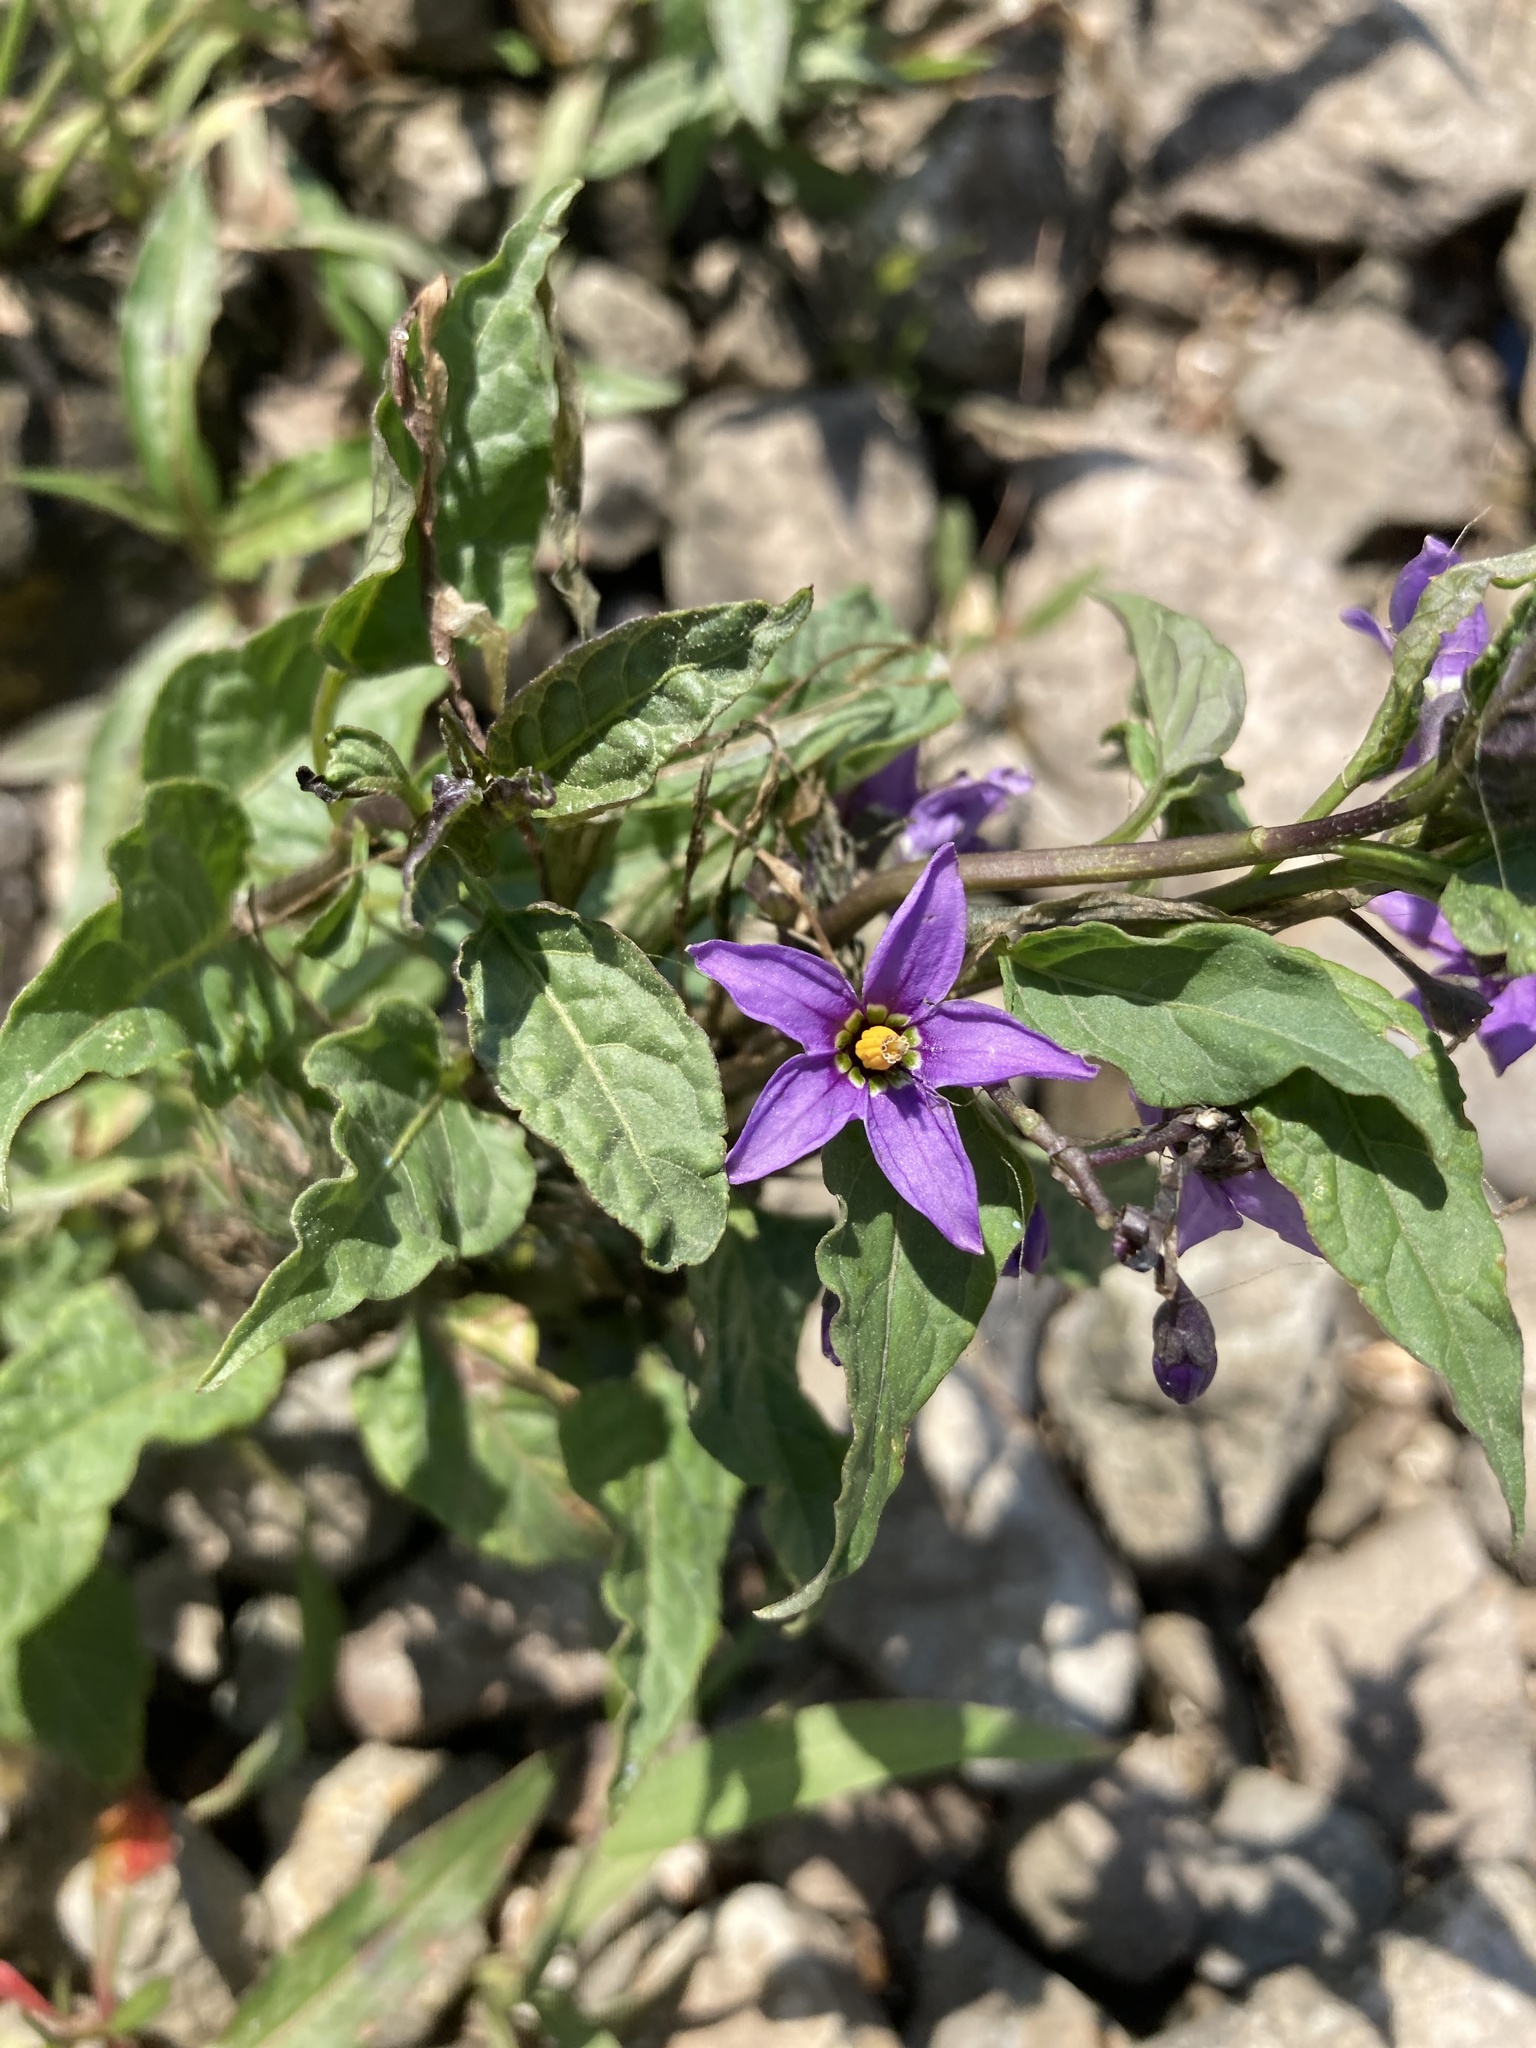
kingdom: Plantae
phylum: Tracheophyta
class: Magnoliopsida
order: Solanales
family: Solanaceae
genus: Solanum
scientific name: Solanum dulcamara
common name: Climbing nightshade
